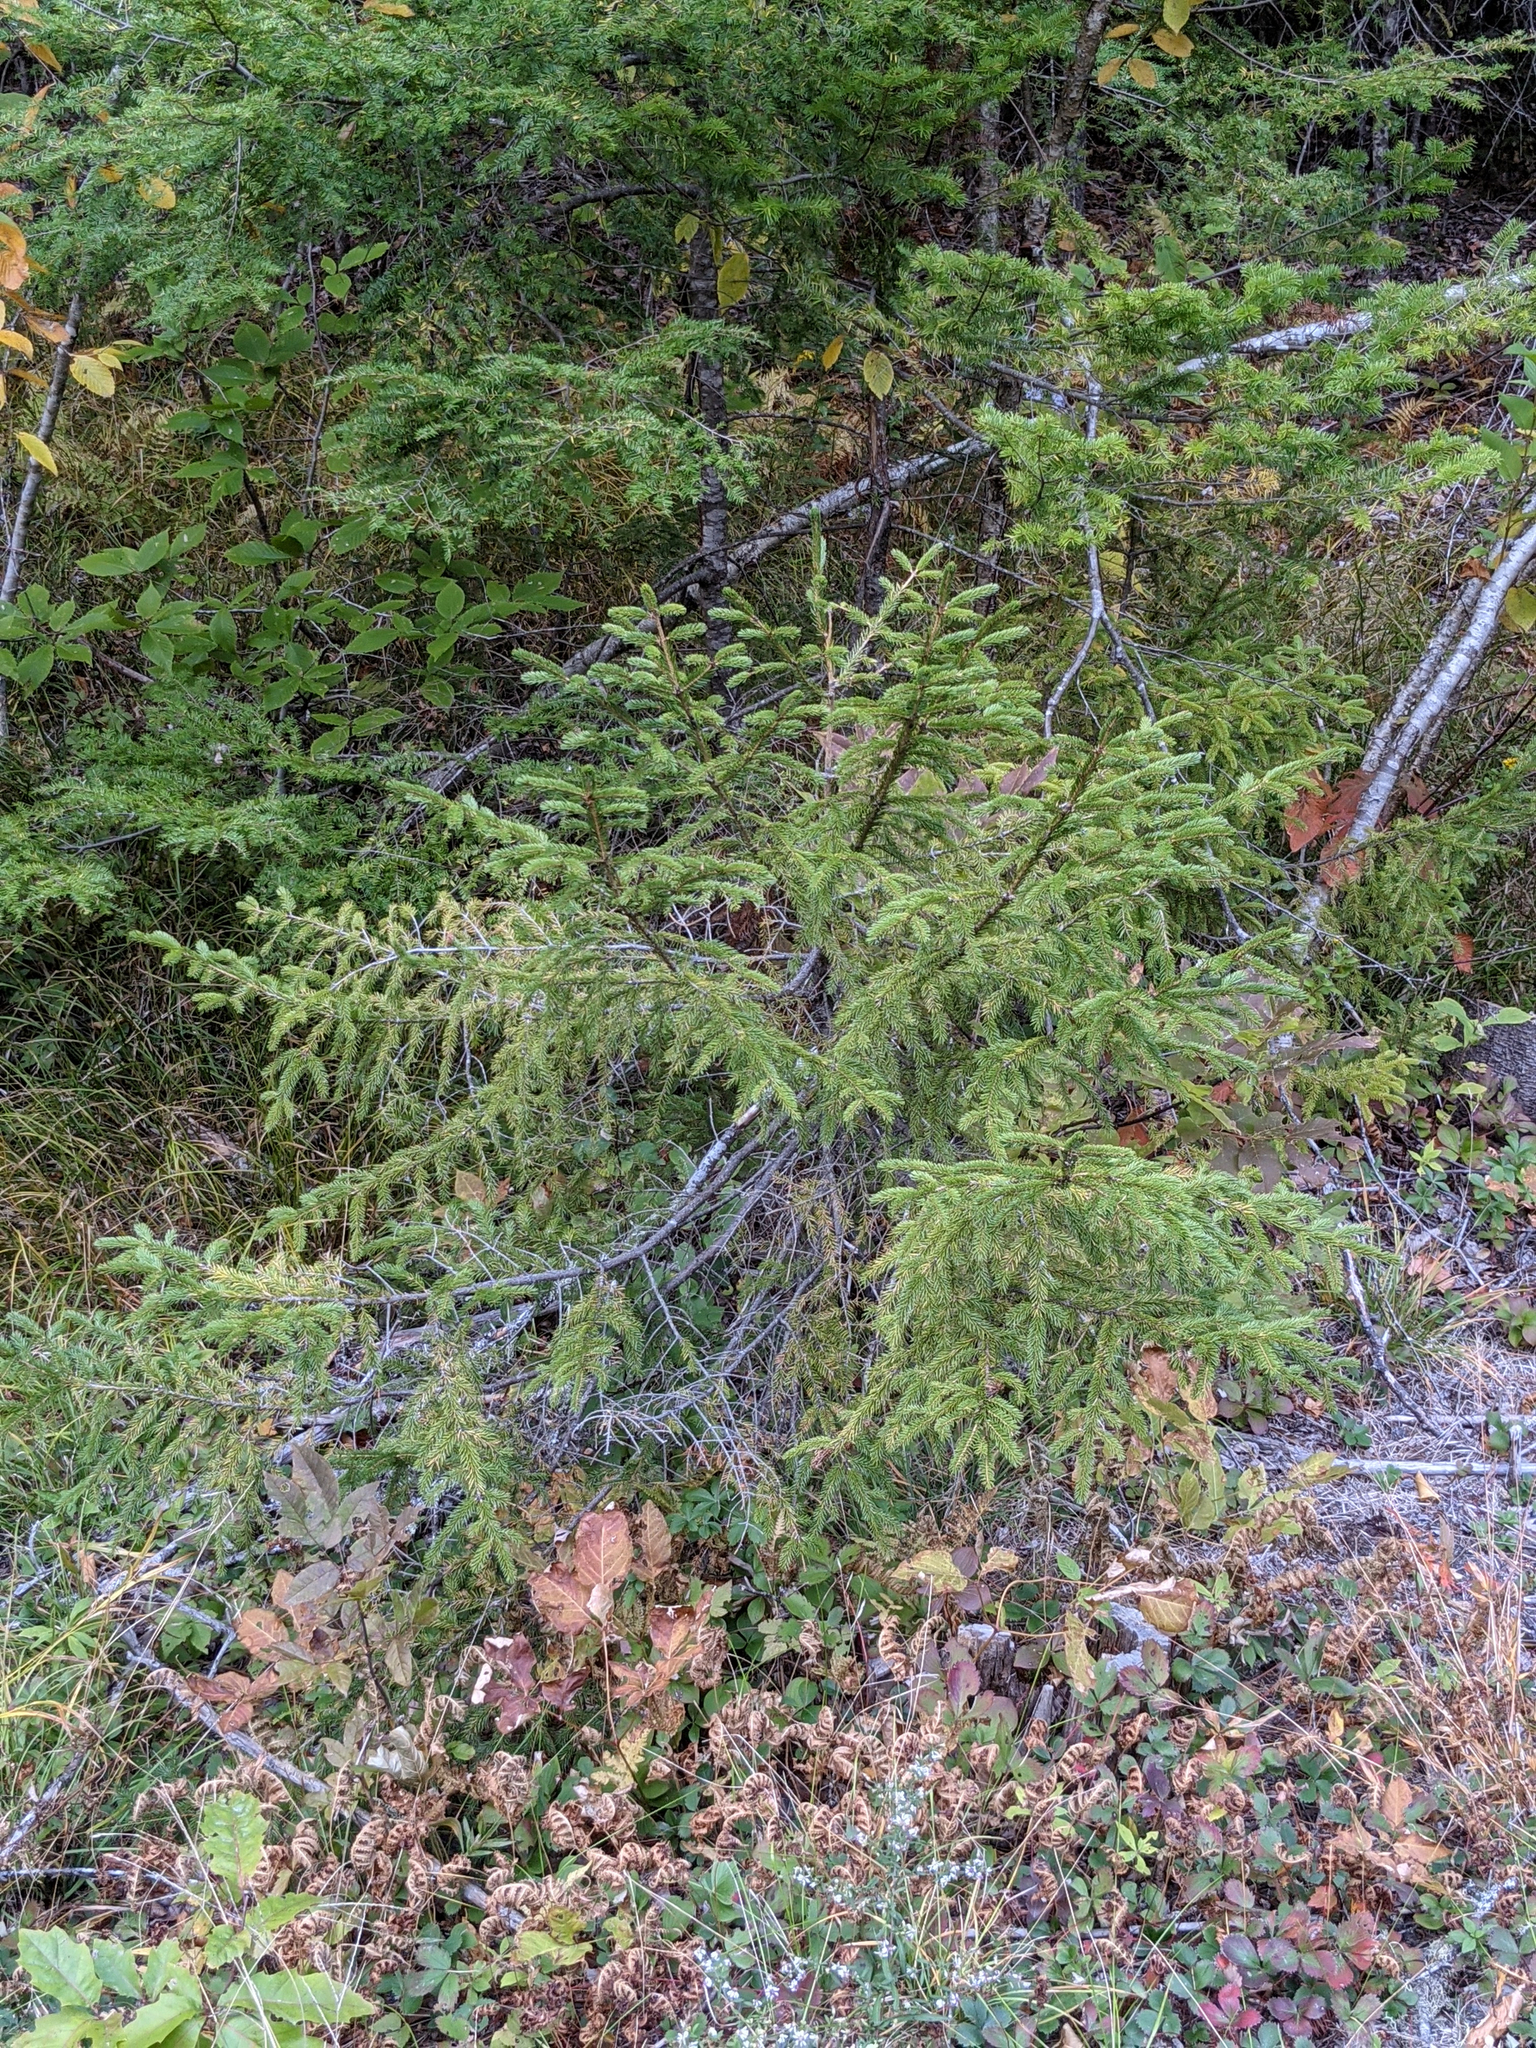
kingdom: Plantae
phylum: Tracheophyta
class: Pinopsida
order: Pinales
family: Pinaceae
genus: Picea
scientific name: Picea rubens
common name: Red spruce
